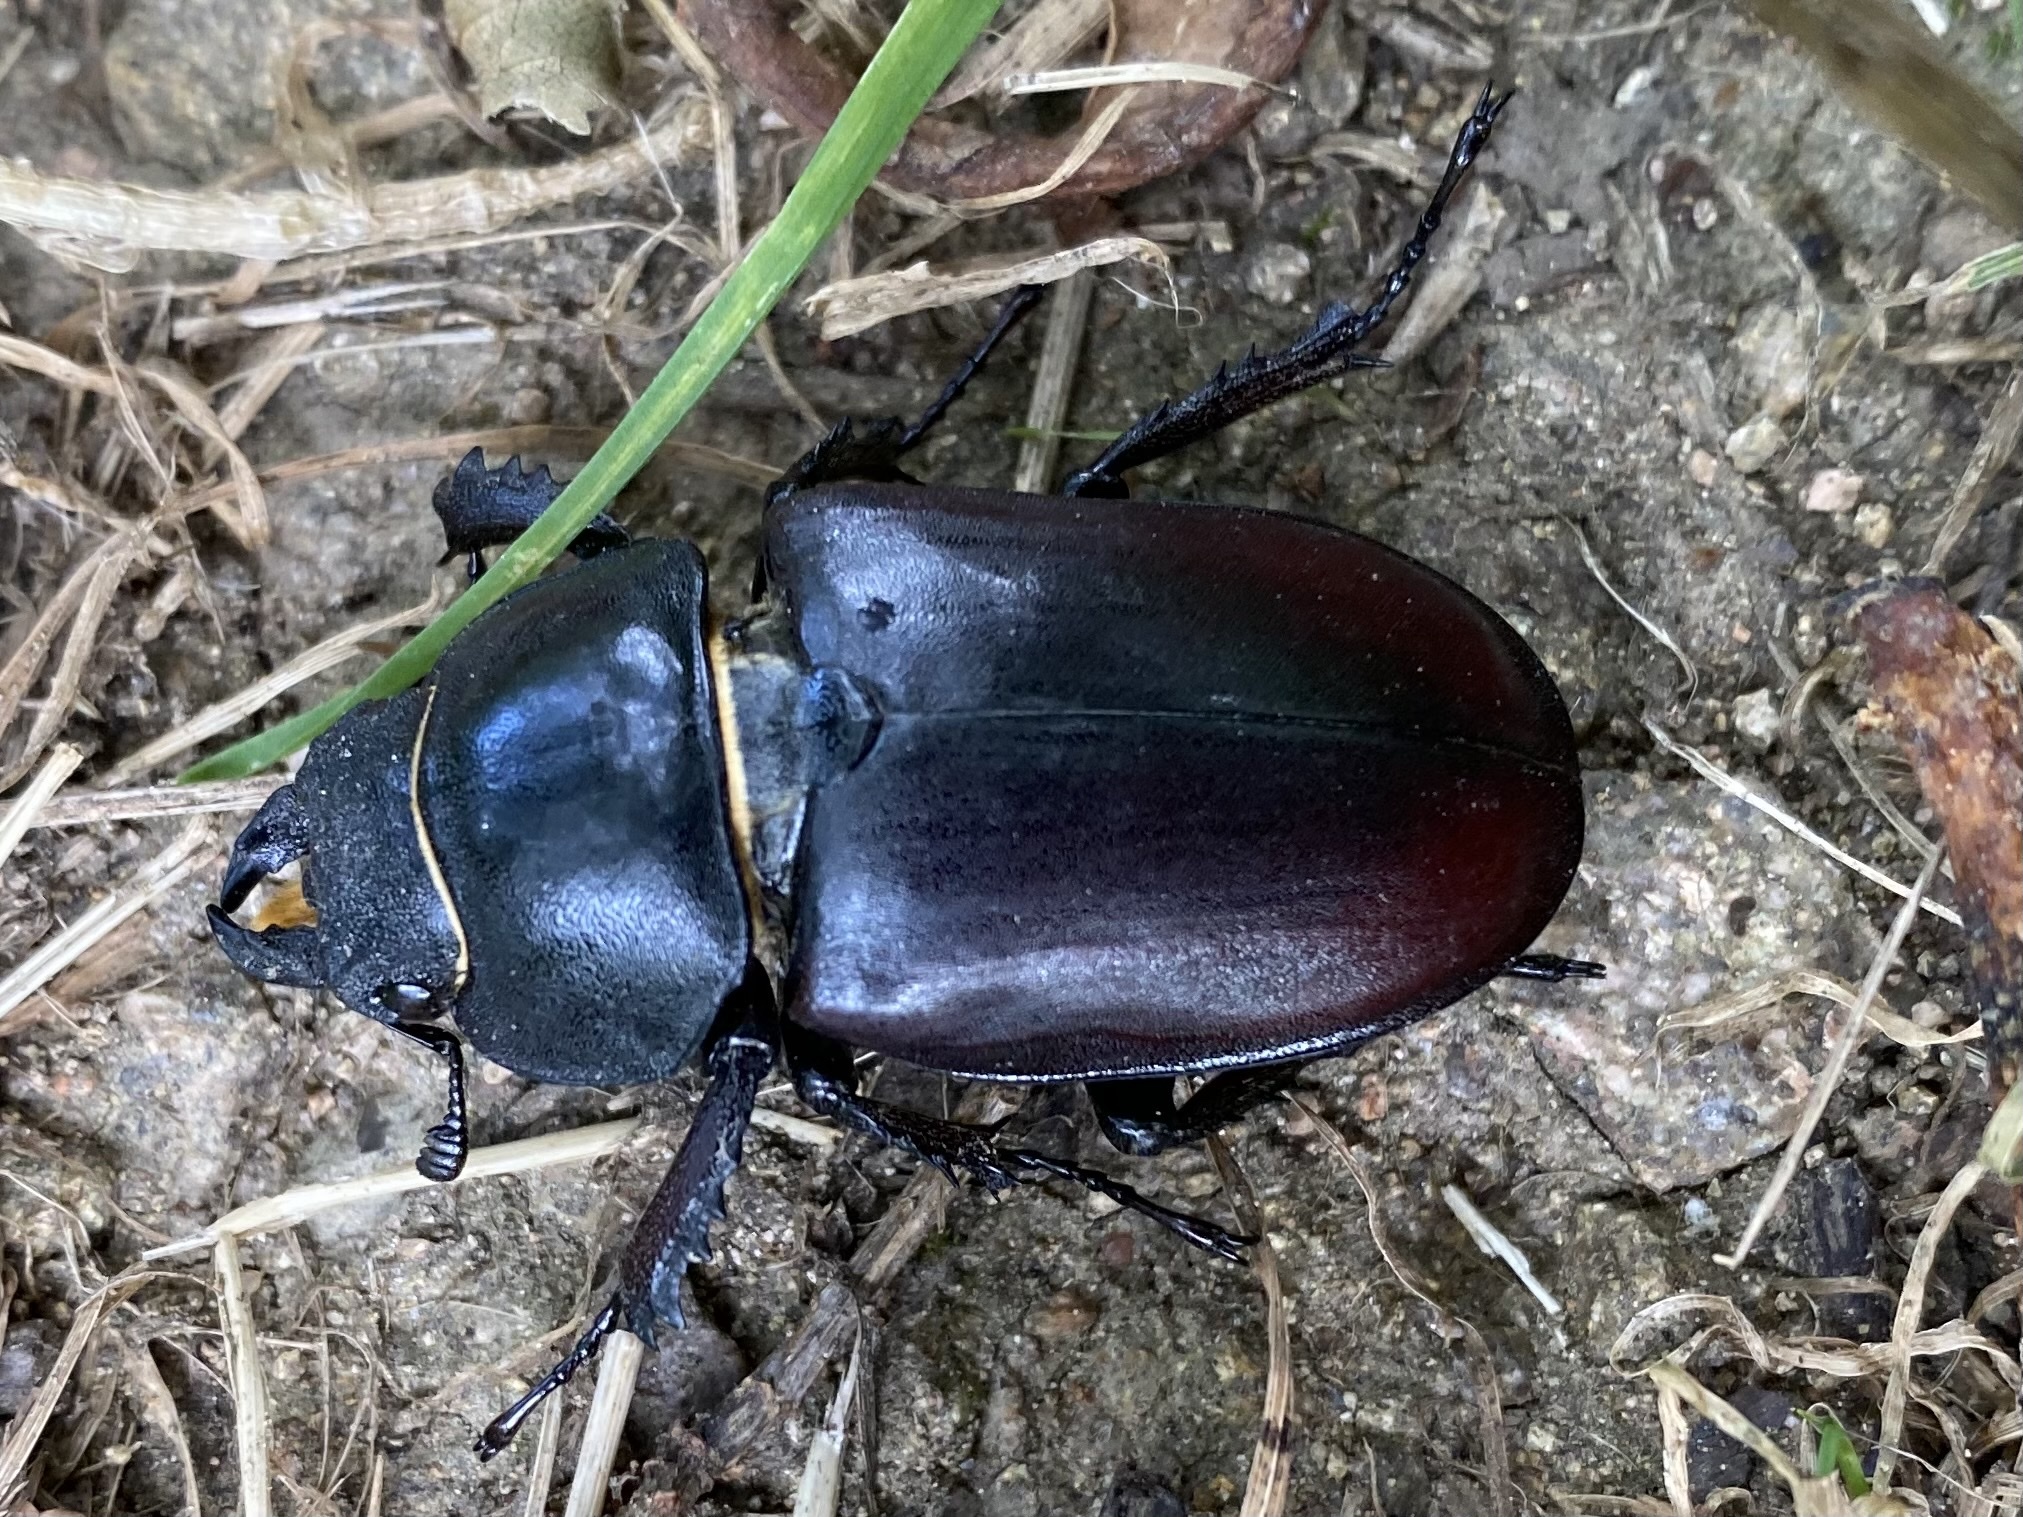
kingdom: Animalia
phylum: Arthropoda
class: Insecta
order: Coleoptera
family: Lucanidae
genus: Lucanus
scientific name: Lucanus cervus
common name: Stag beetle
